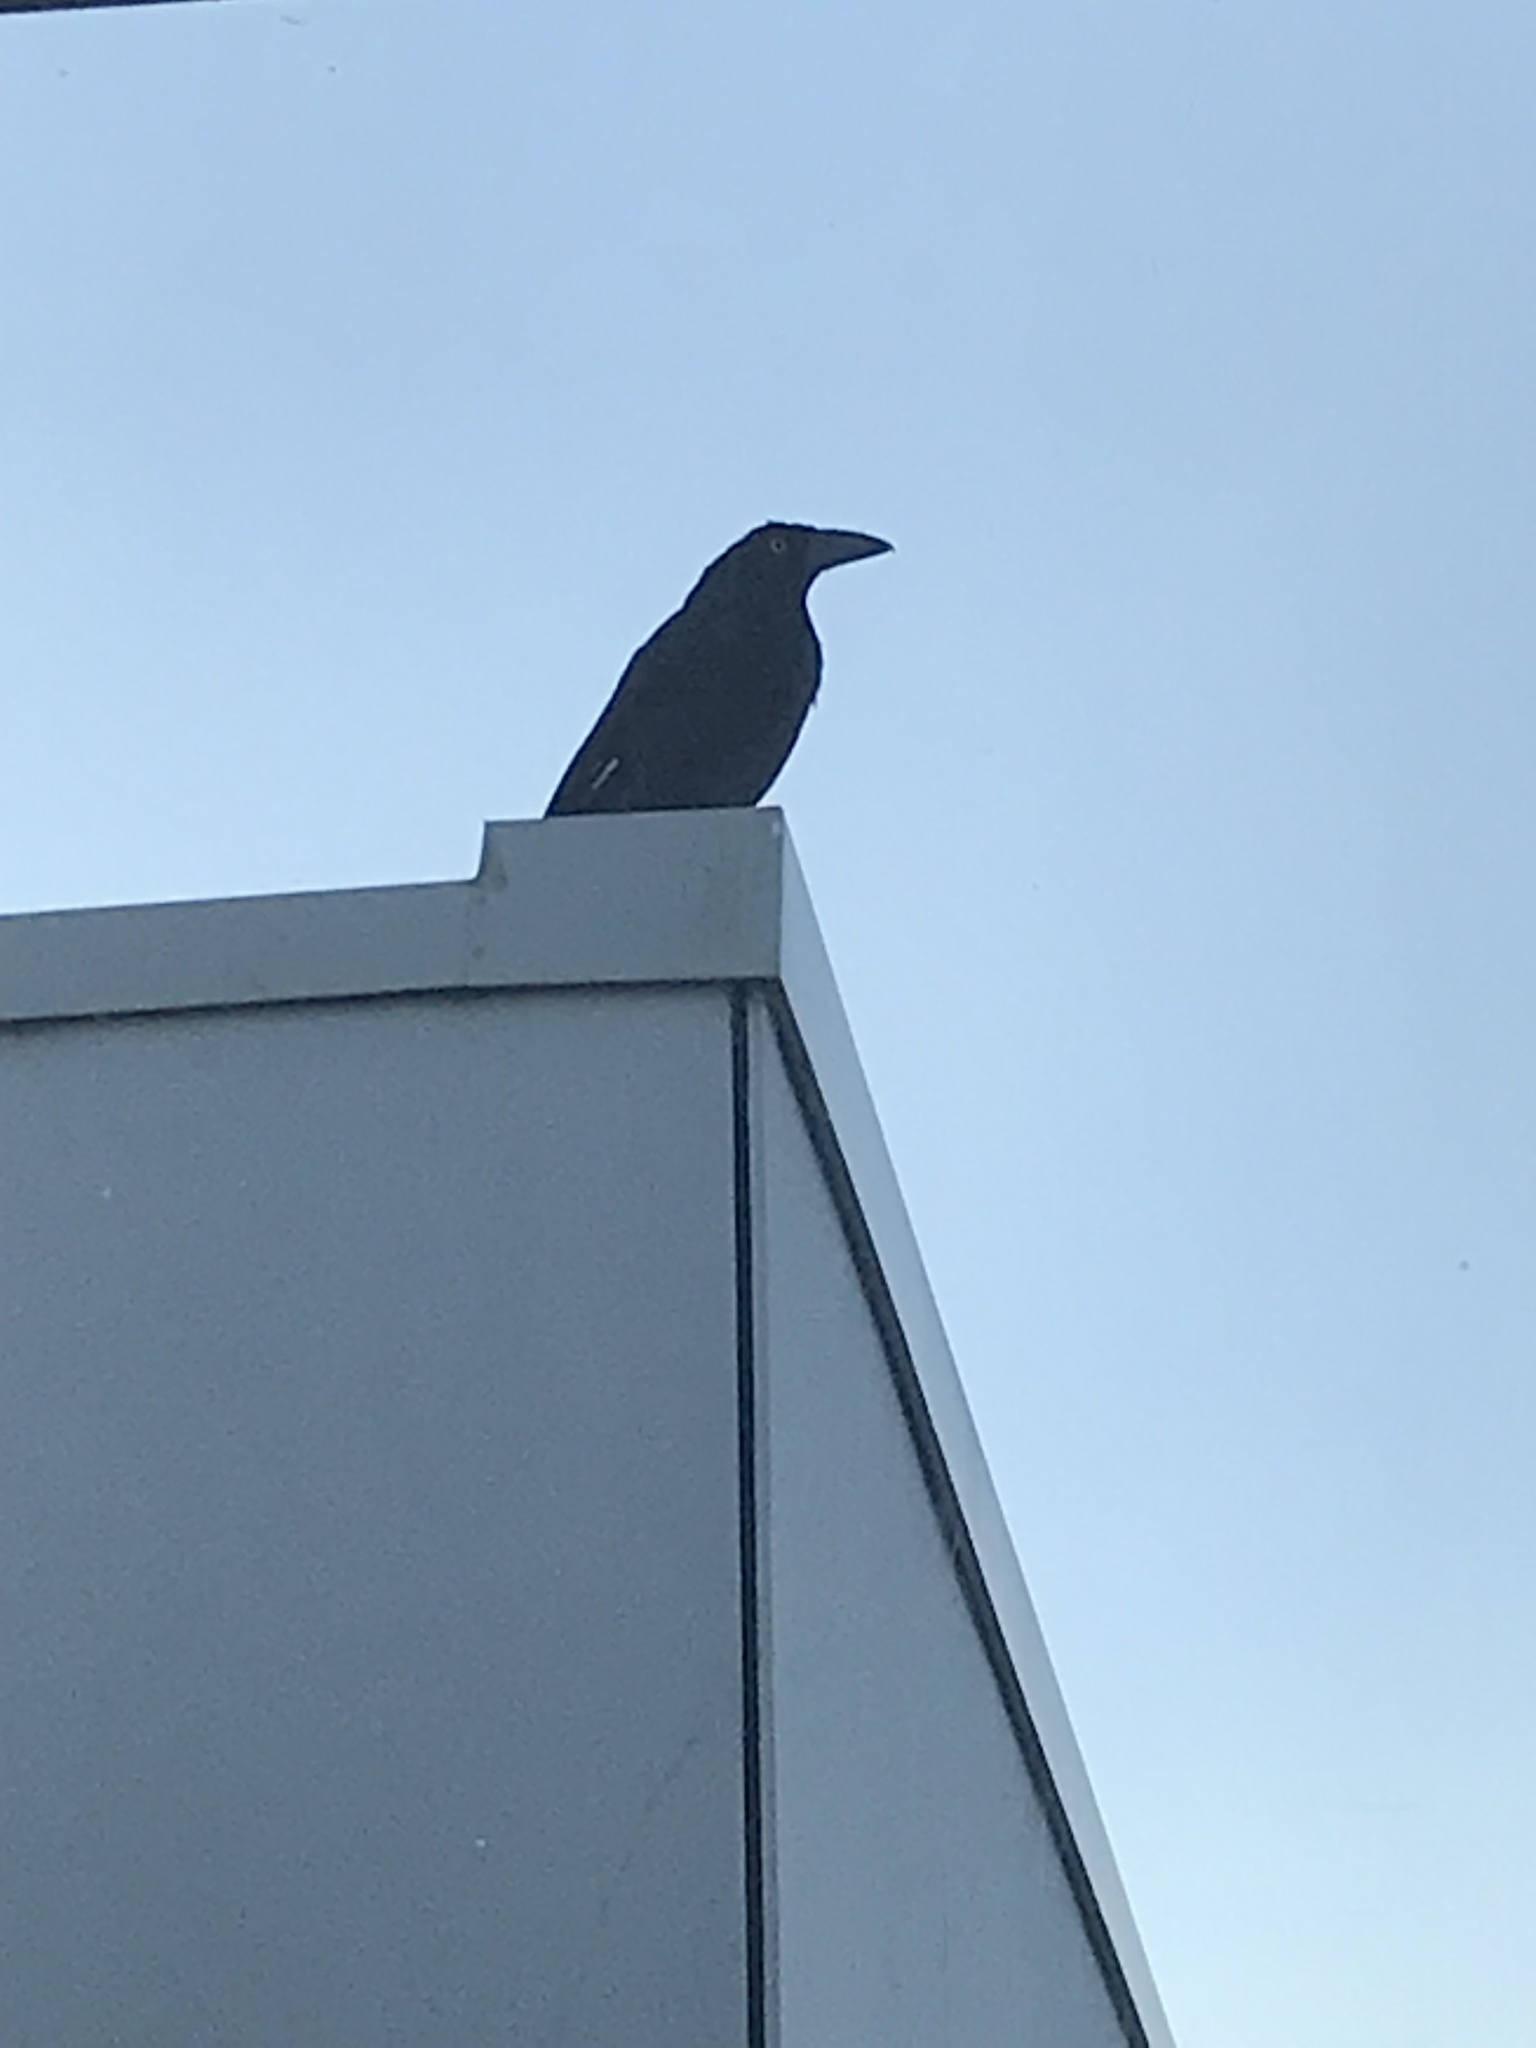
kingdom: Animalia
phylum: Chordata
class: Aves
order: Passeriformes
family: Cracticidae
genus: Strepera
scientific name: Strepera graculina
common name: Pied currawong
